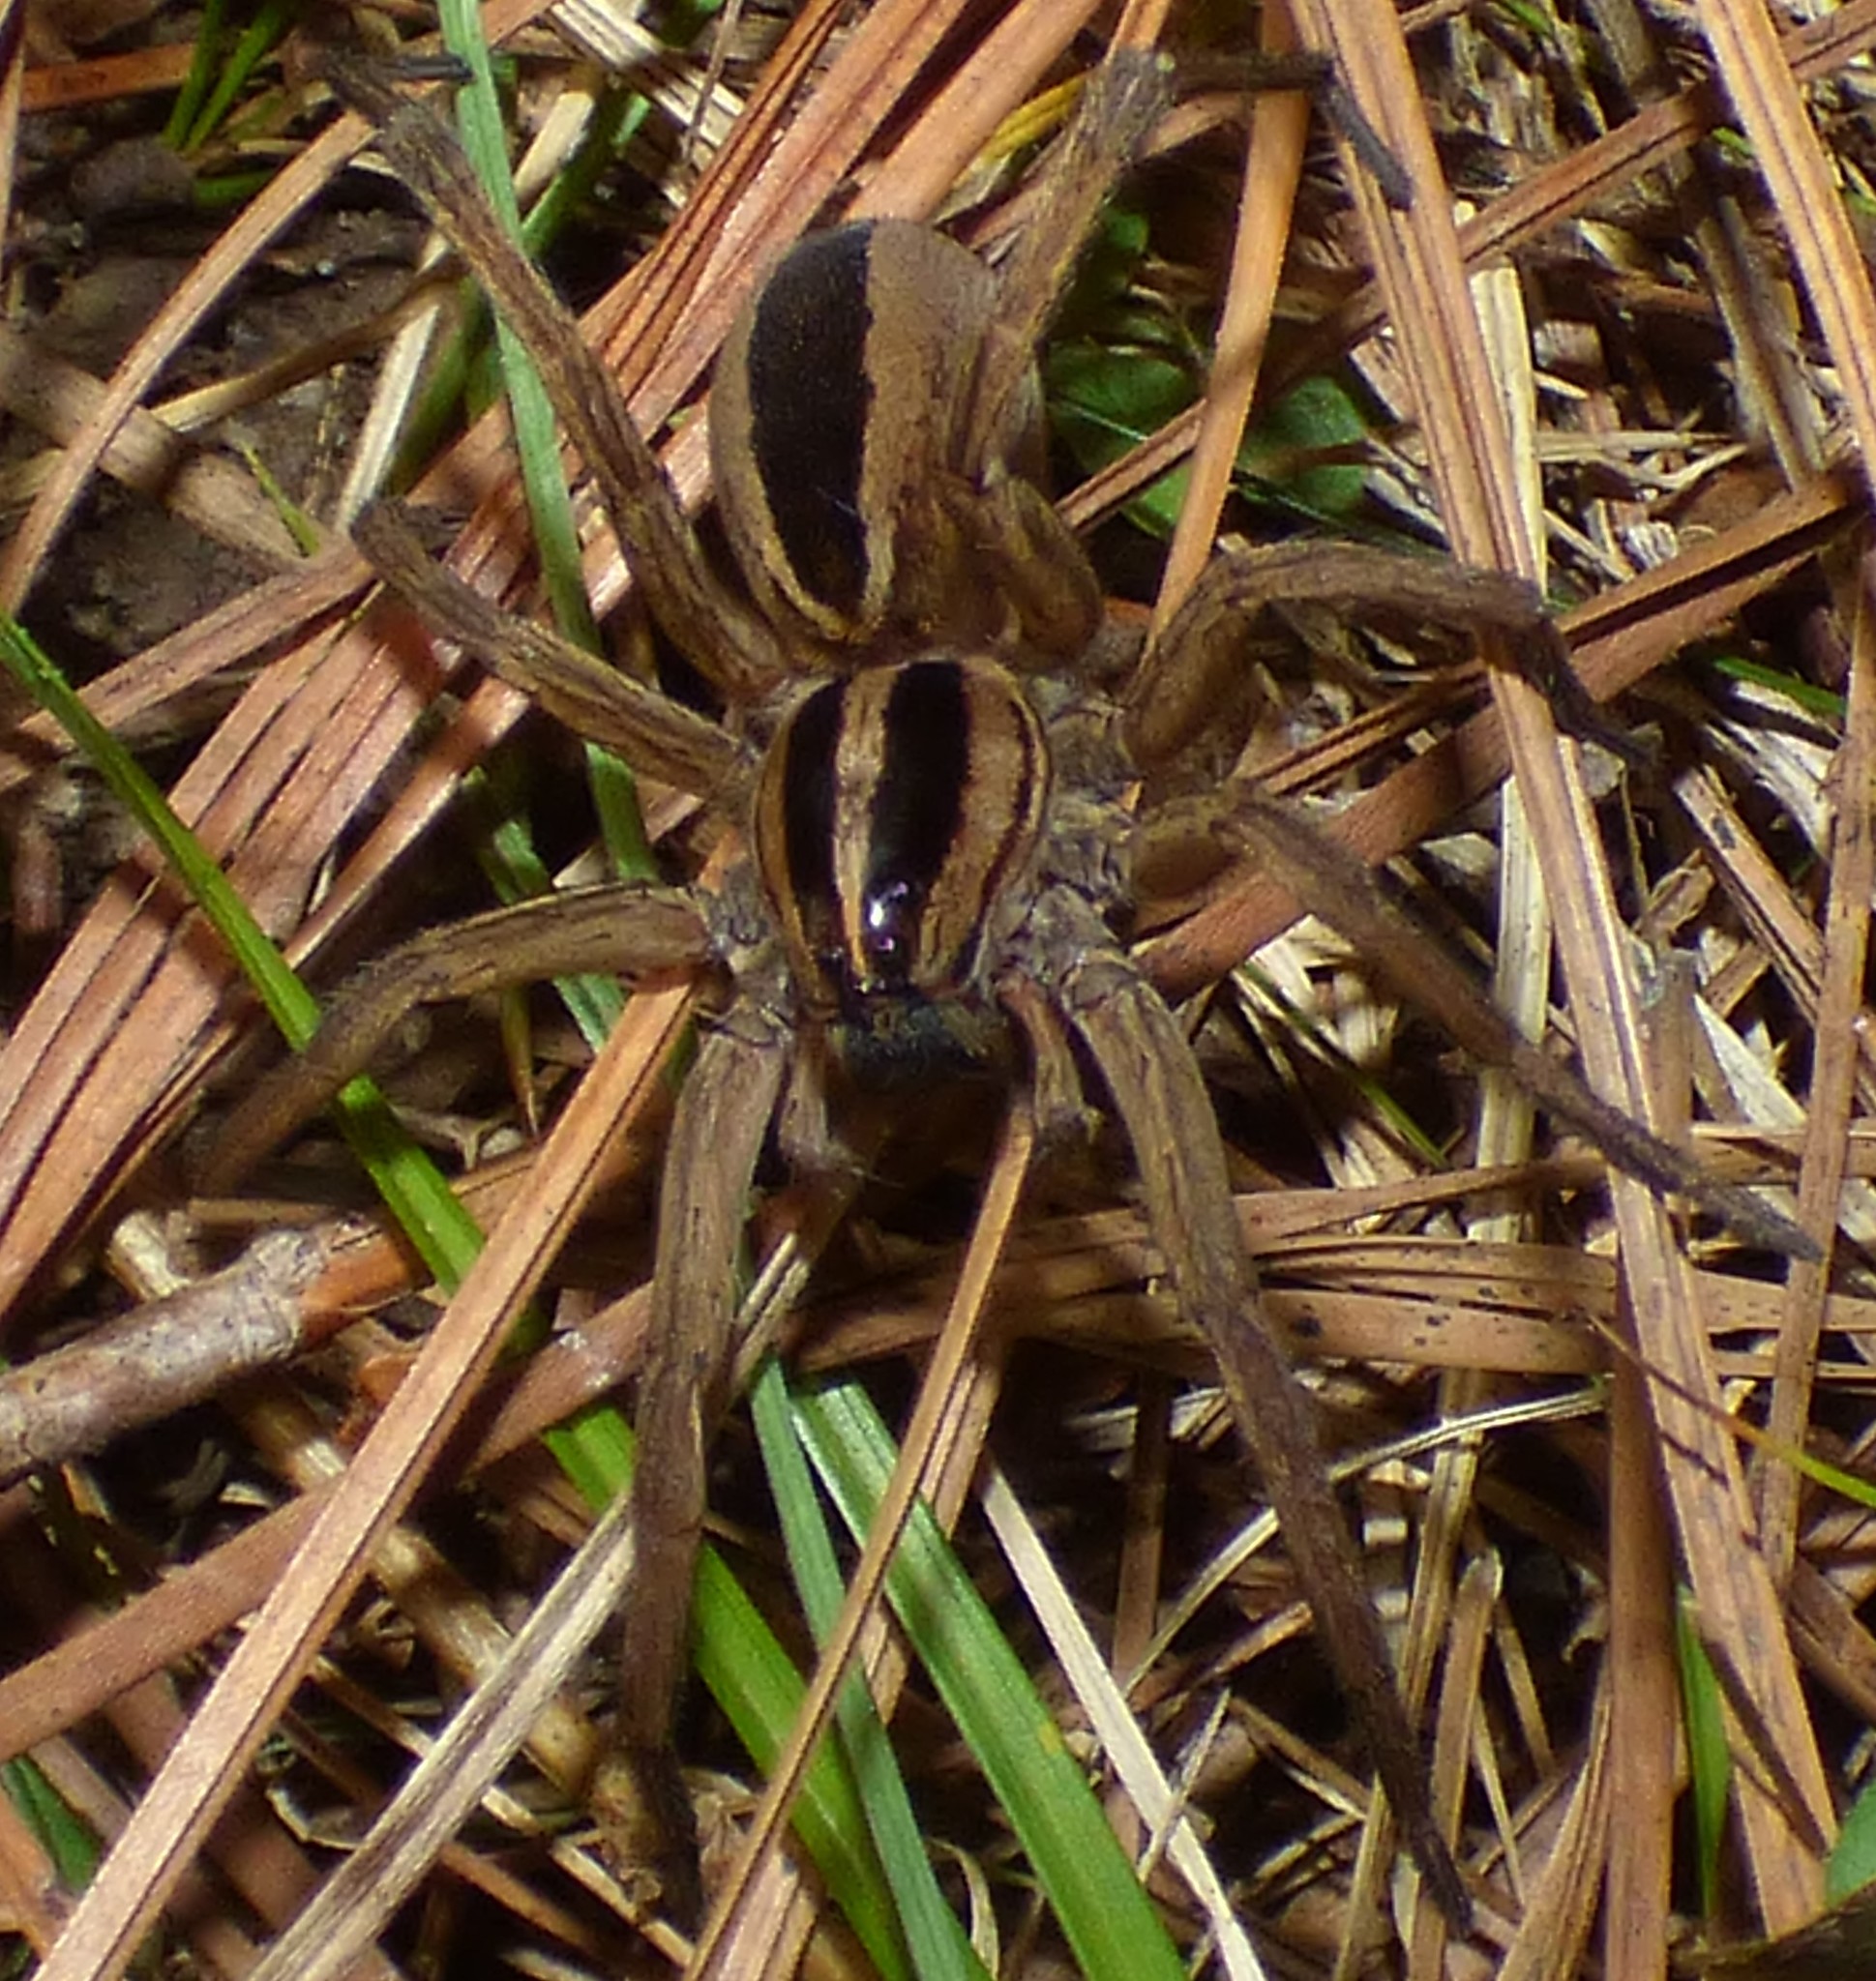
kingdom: Animalia
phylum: Arthropoda
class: Arachnida
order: Araneae
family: Lycosidae
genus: Rabidosa
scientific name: Rabidosa punctulata
